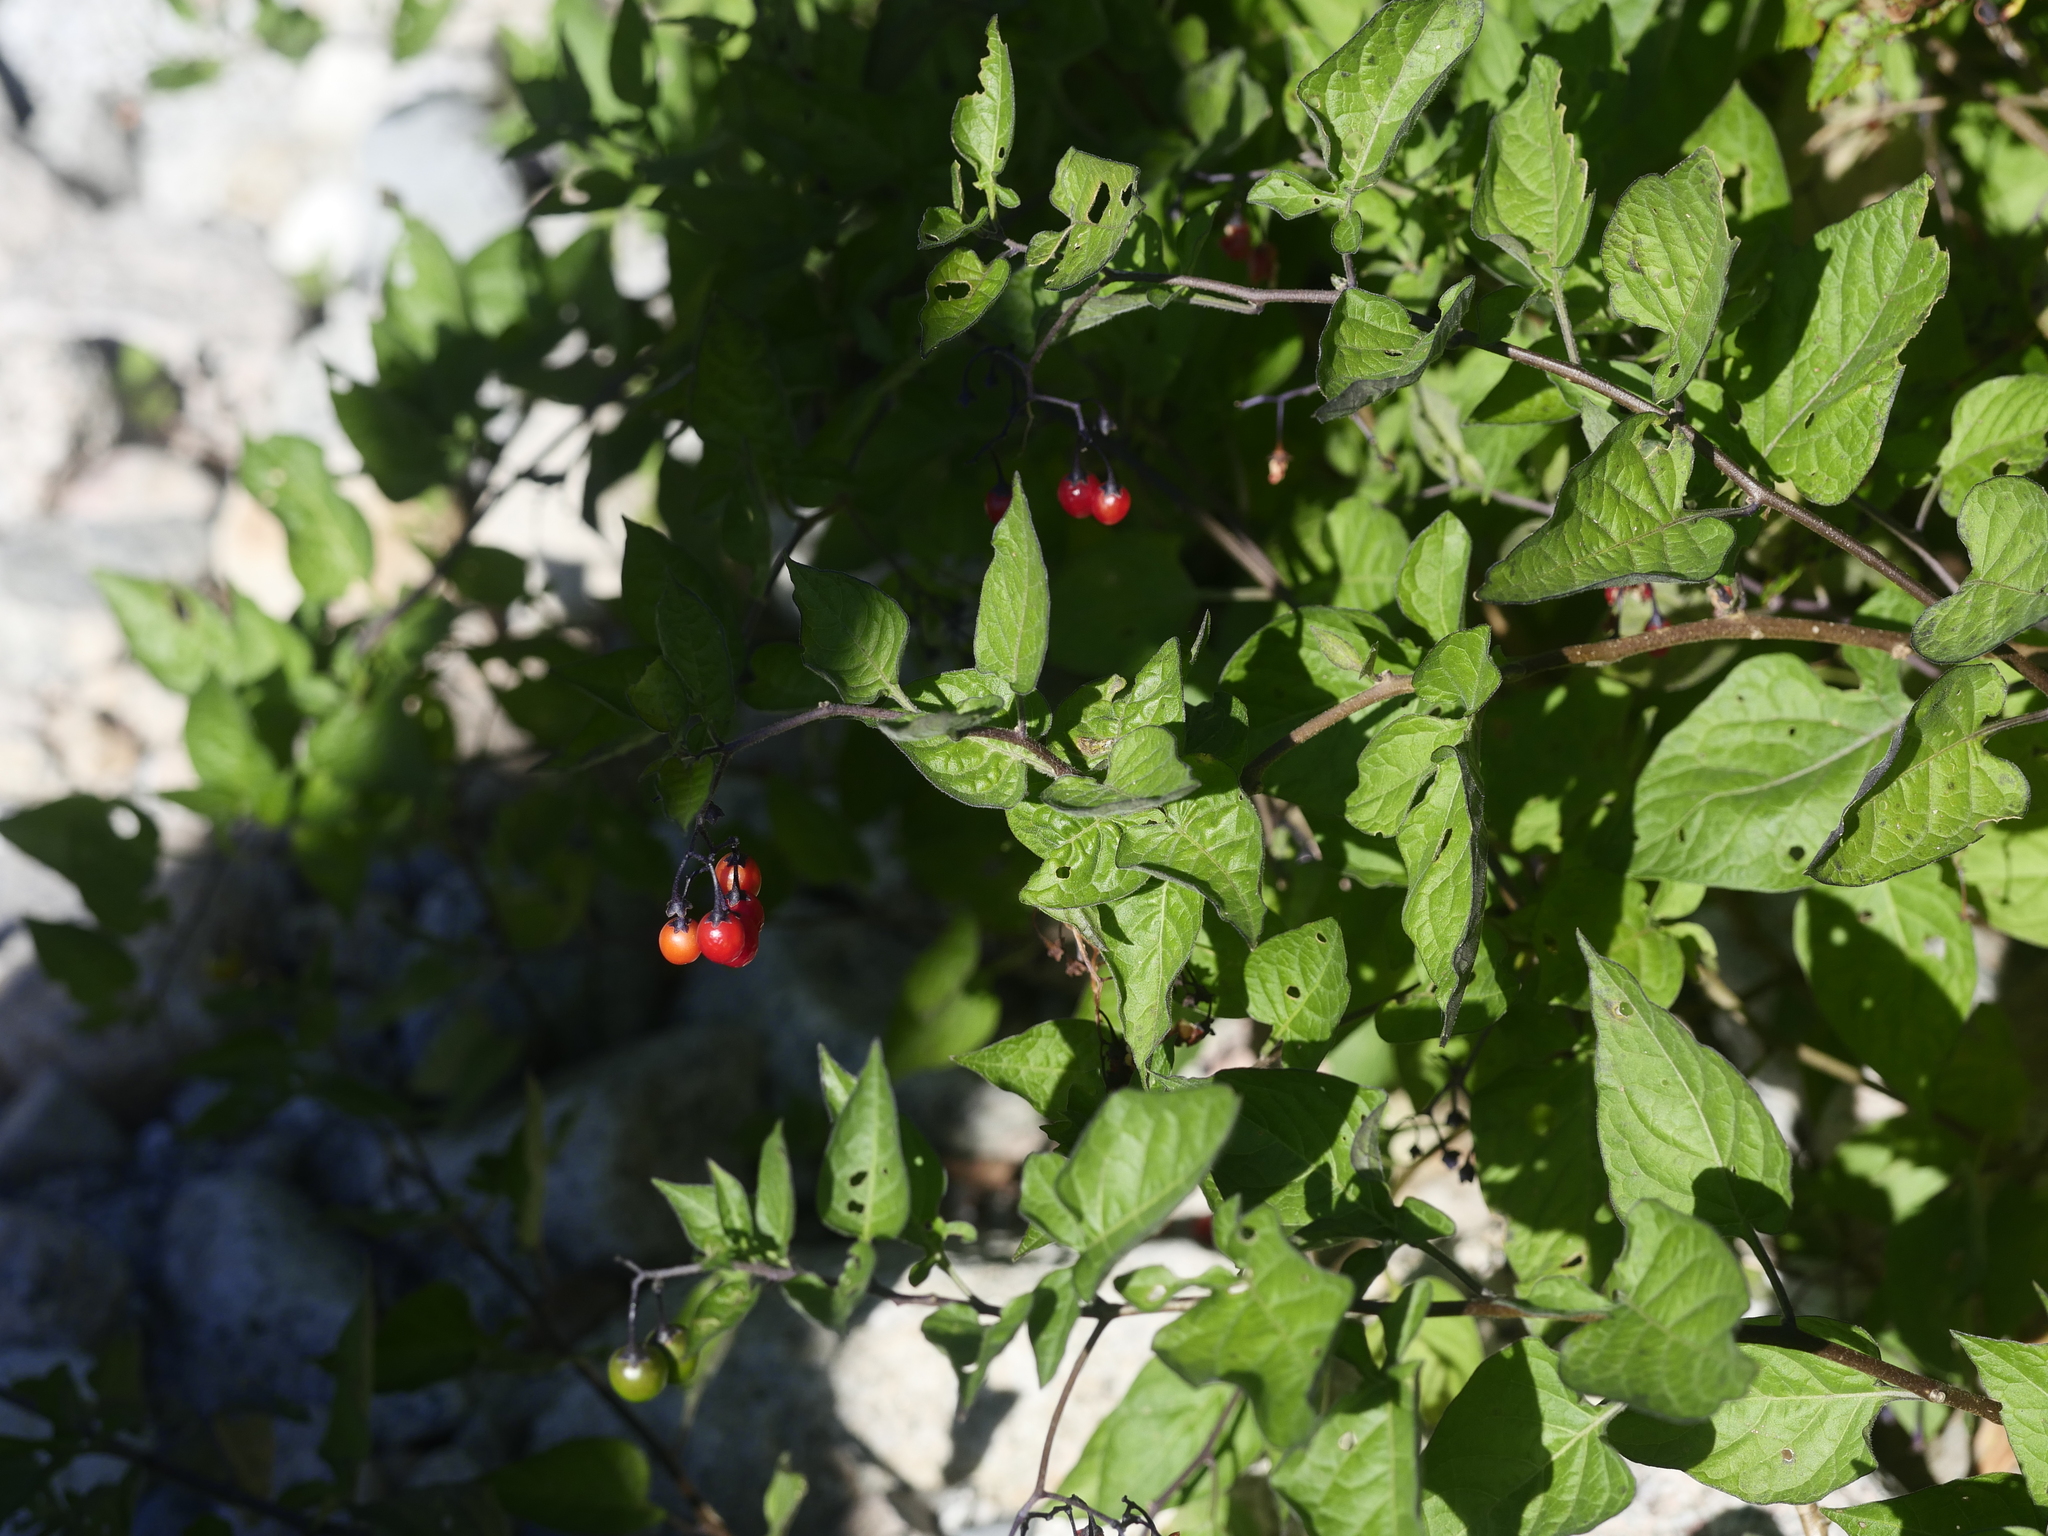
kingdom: Plantae
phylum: Tracheophyta
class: Magnoliopsida
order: Solanales
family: Solanaceae
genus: Solanum
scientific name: Solanum dulcamara
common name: Climbing nightshade
